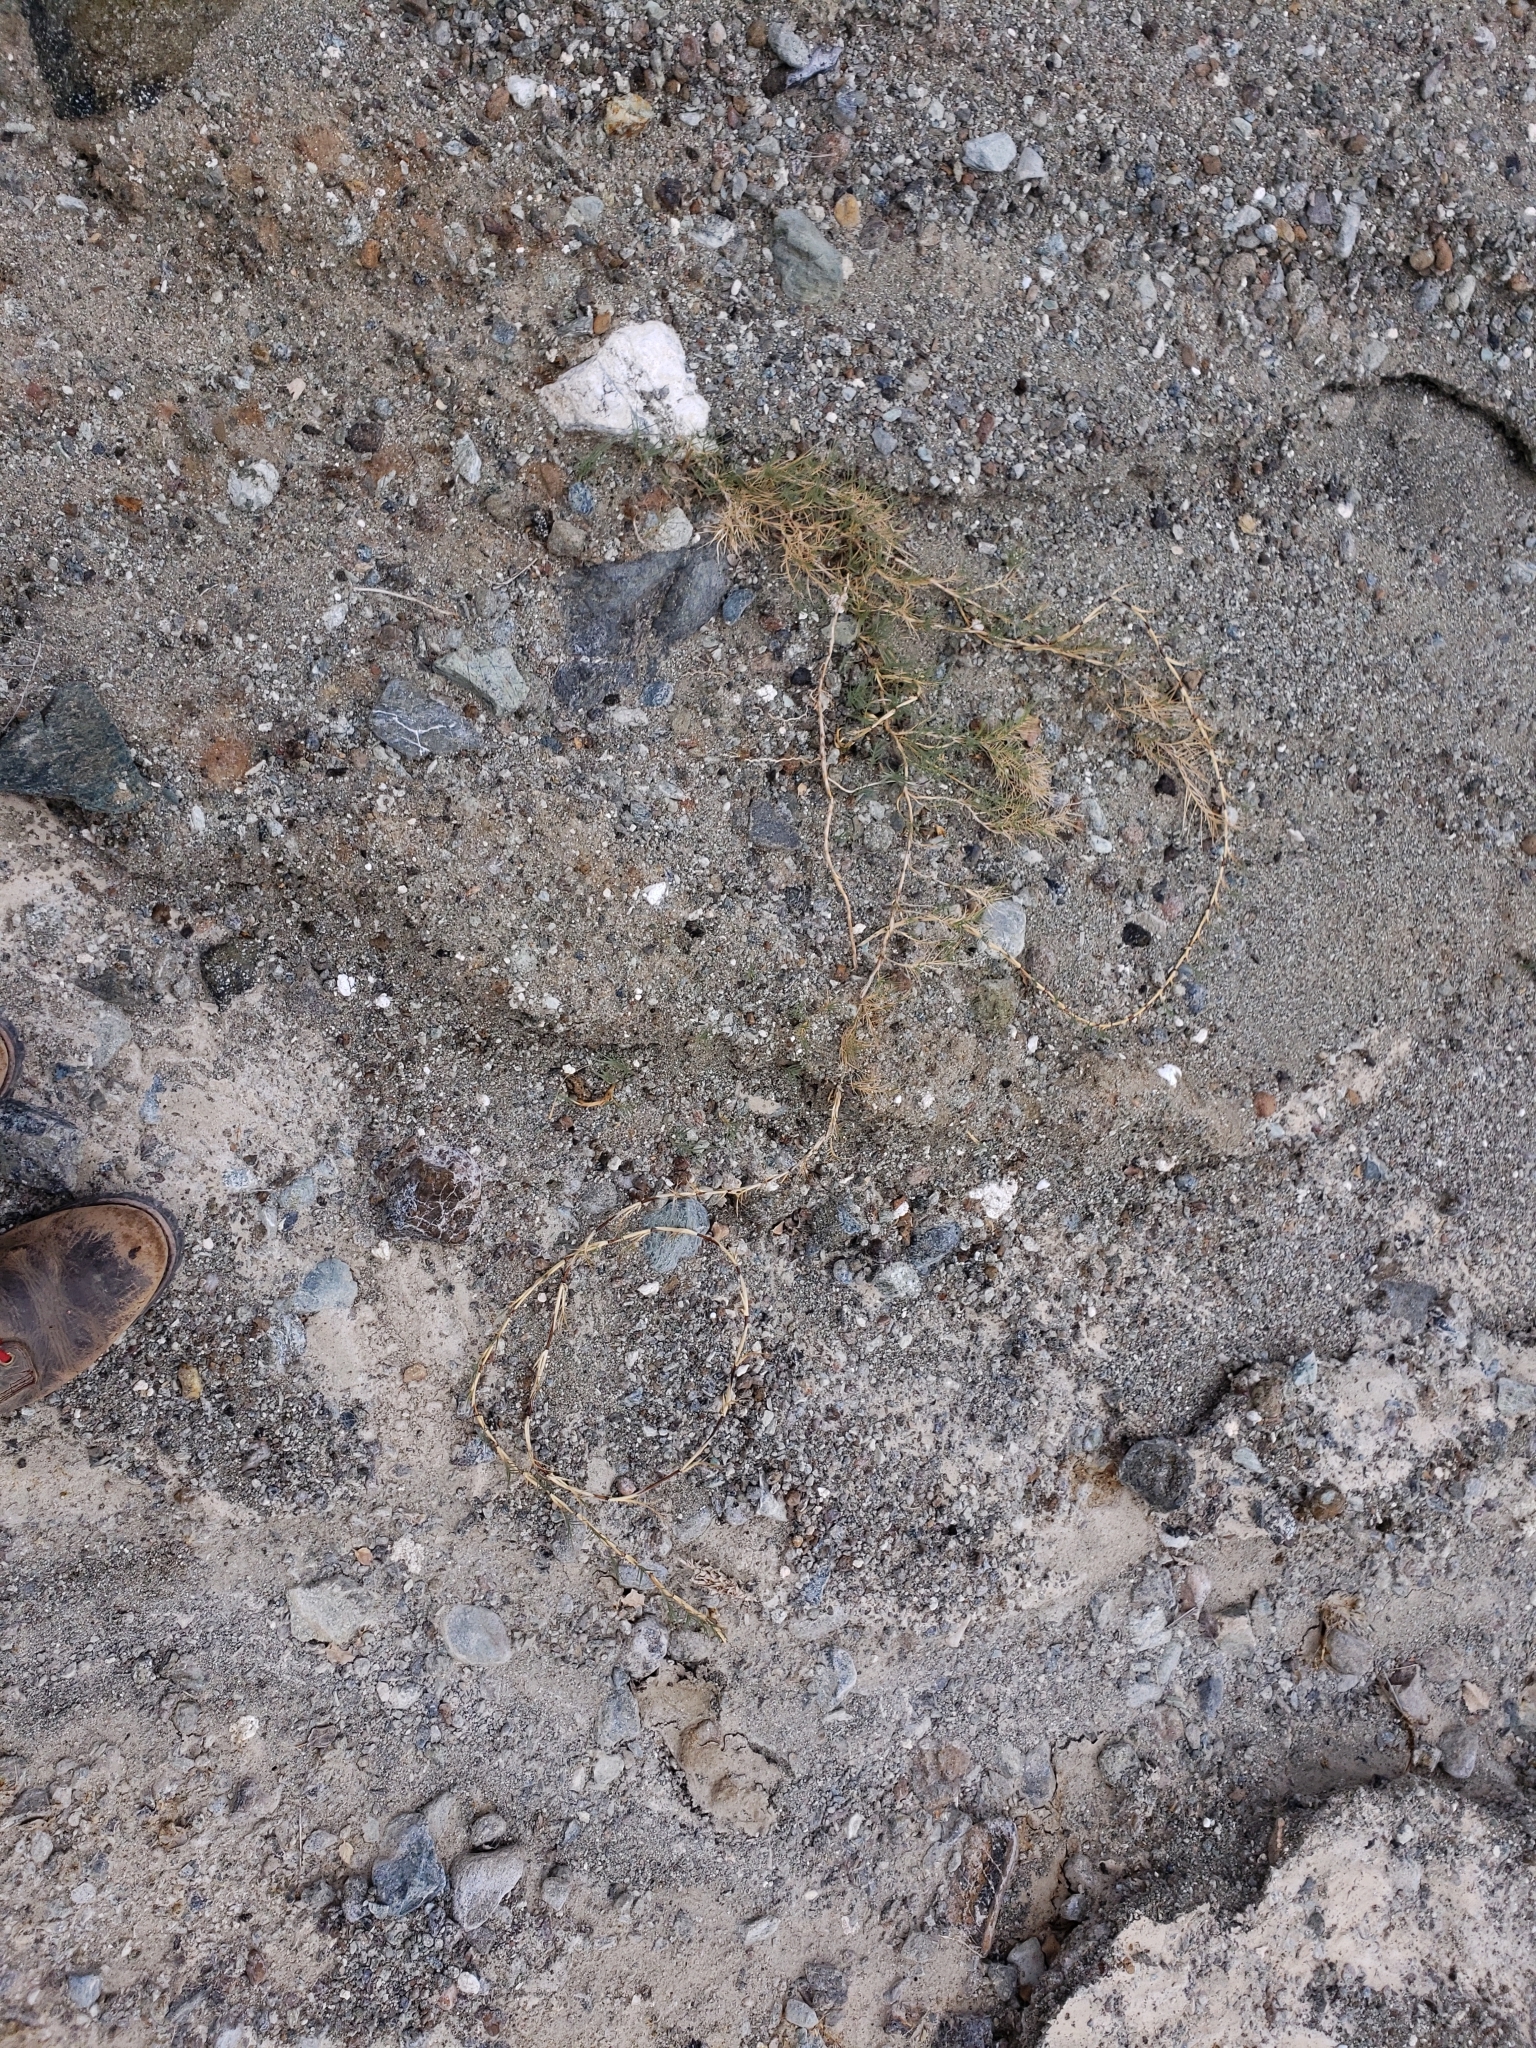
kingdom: Plantae
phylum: Tracheophyta
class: Liliopsida
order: Poales
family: Poaceae
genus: Distichlis
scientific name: Distichlis spicata
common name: Saltgrass
